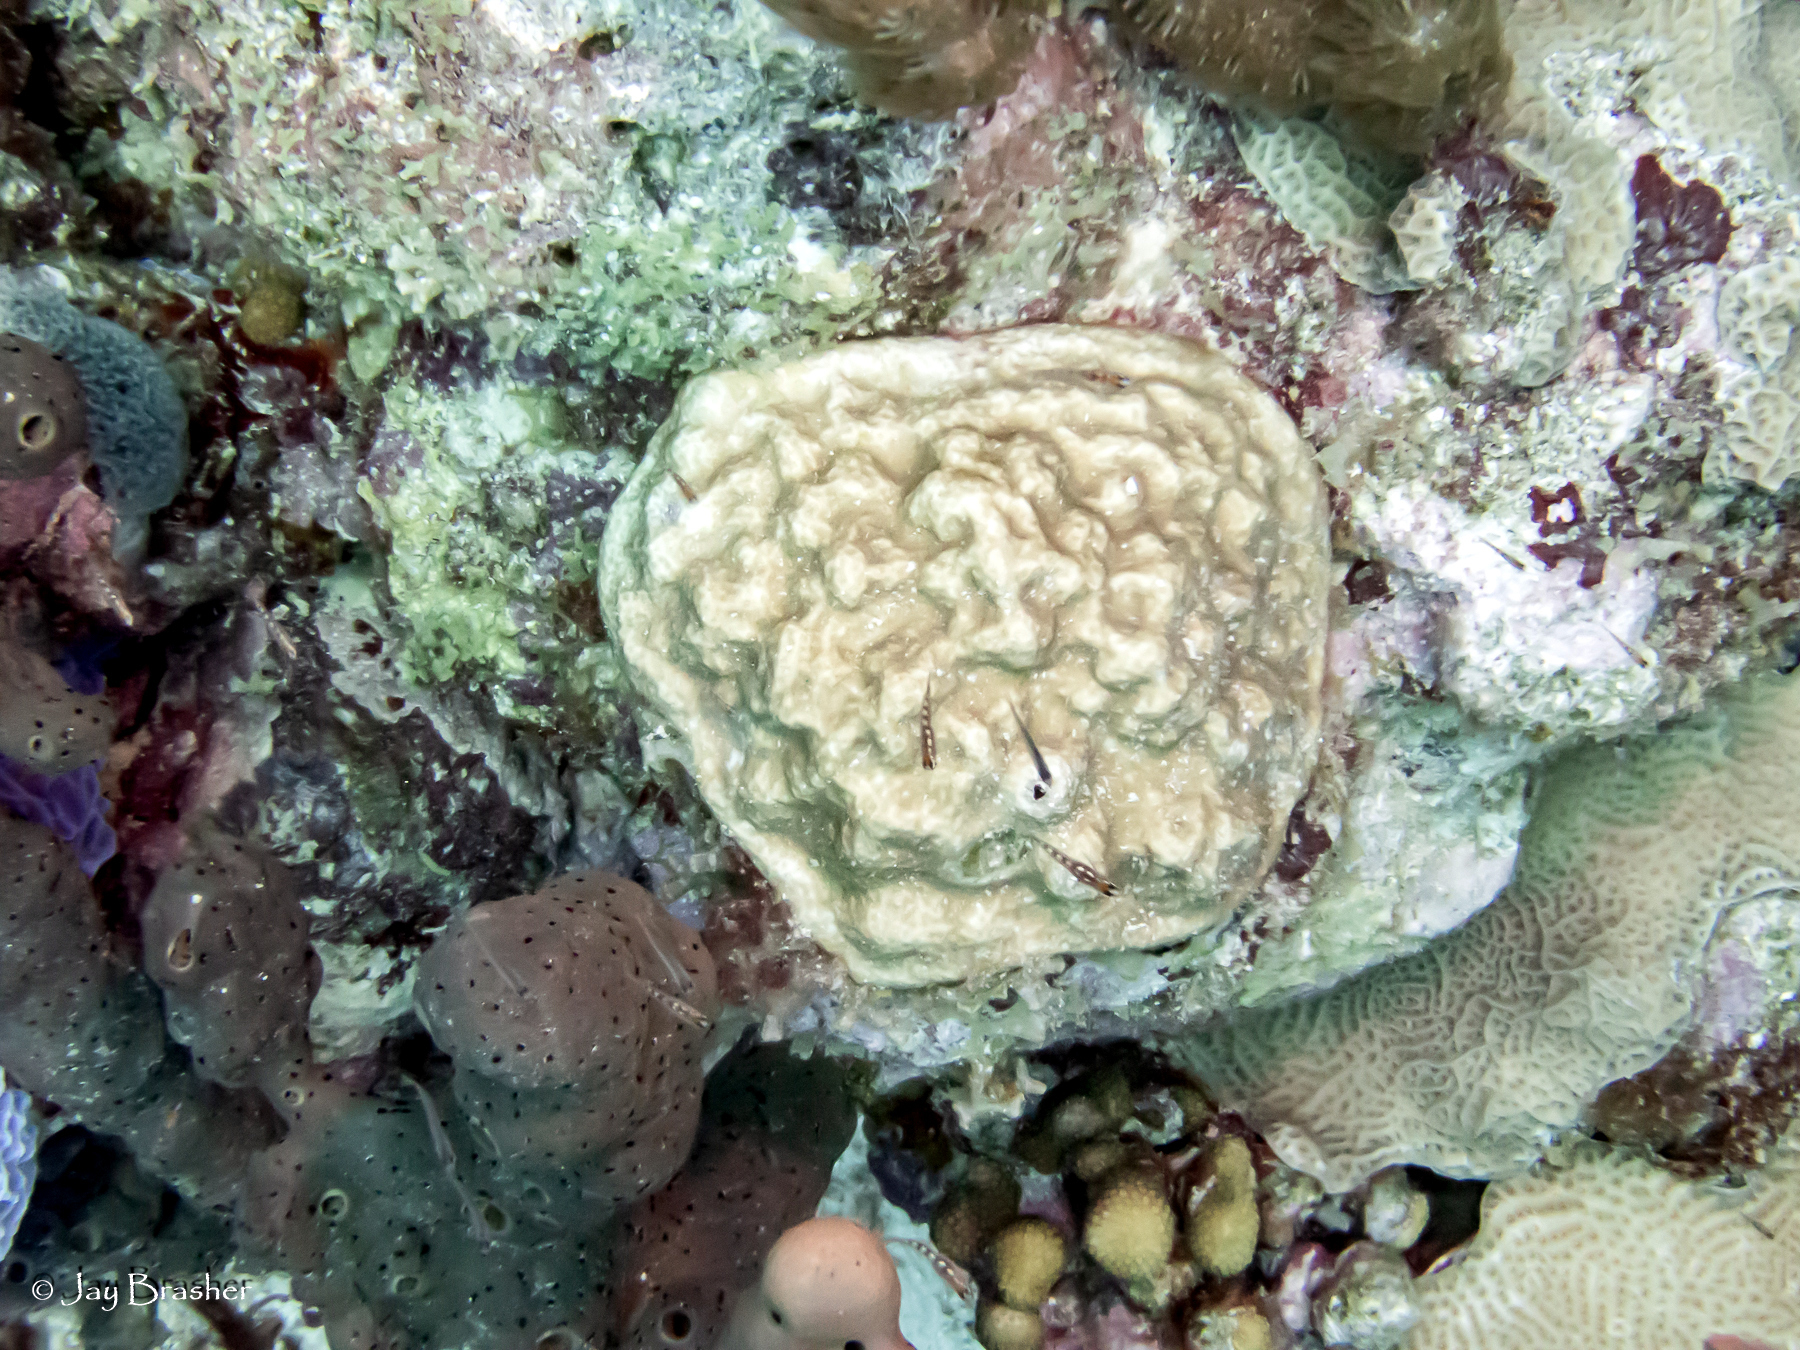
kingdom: Animalia
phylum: Porifera
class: Demospongiae
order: Agelasida
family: Agelasidae
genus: Agelas
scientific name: Agelas conifera
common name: Brown tube sponge
